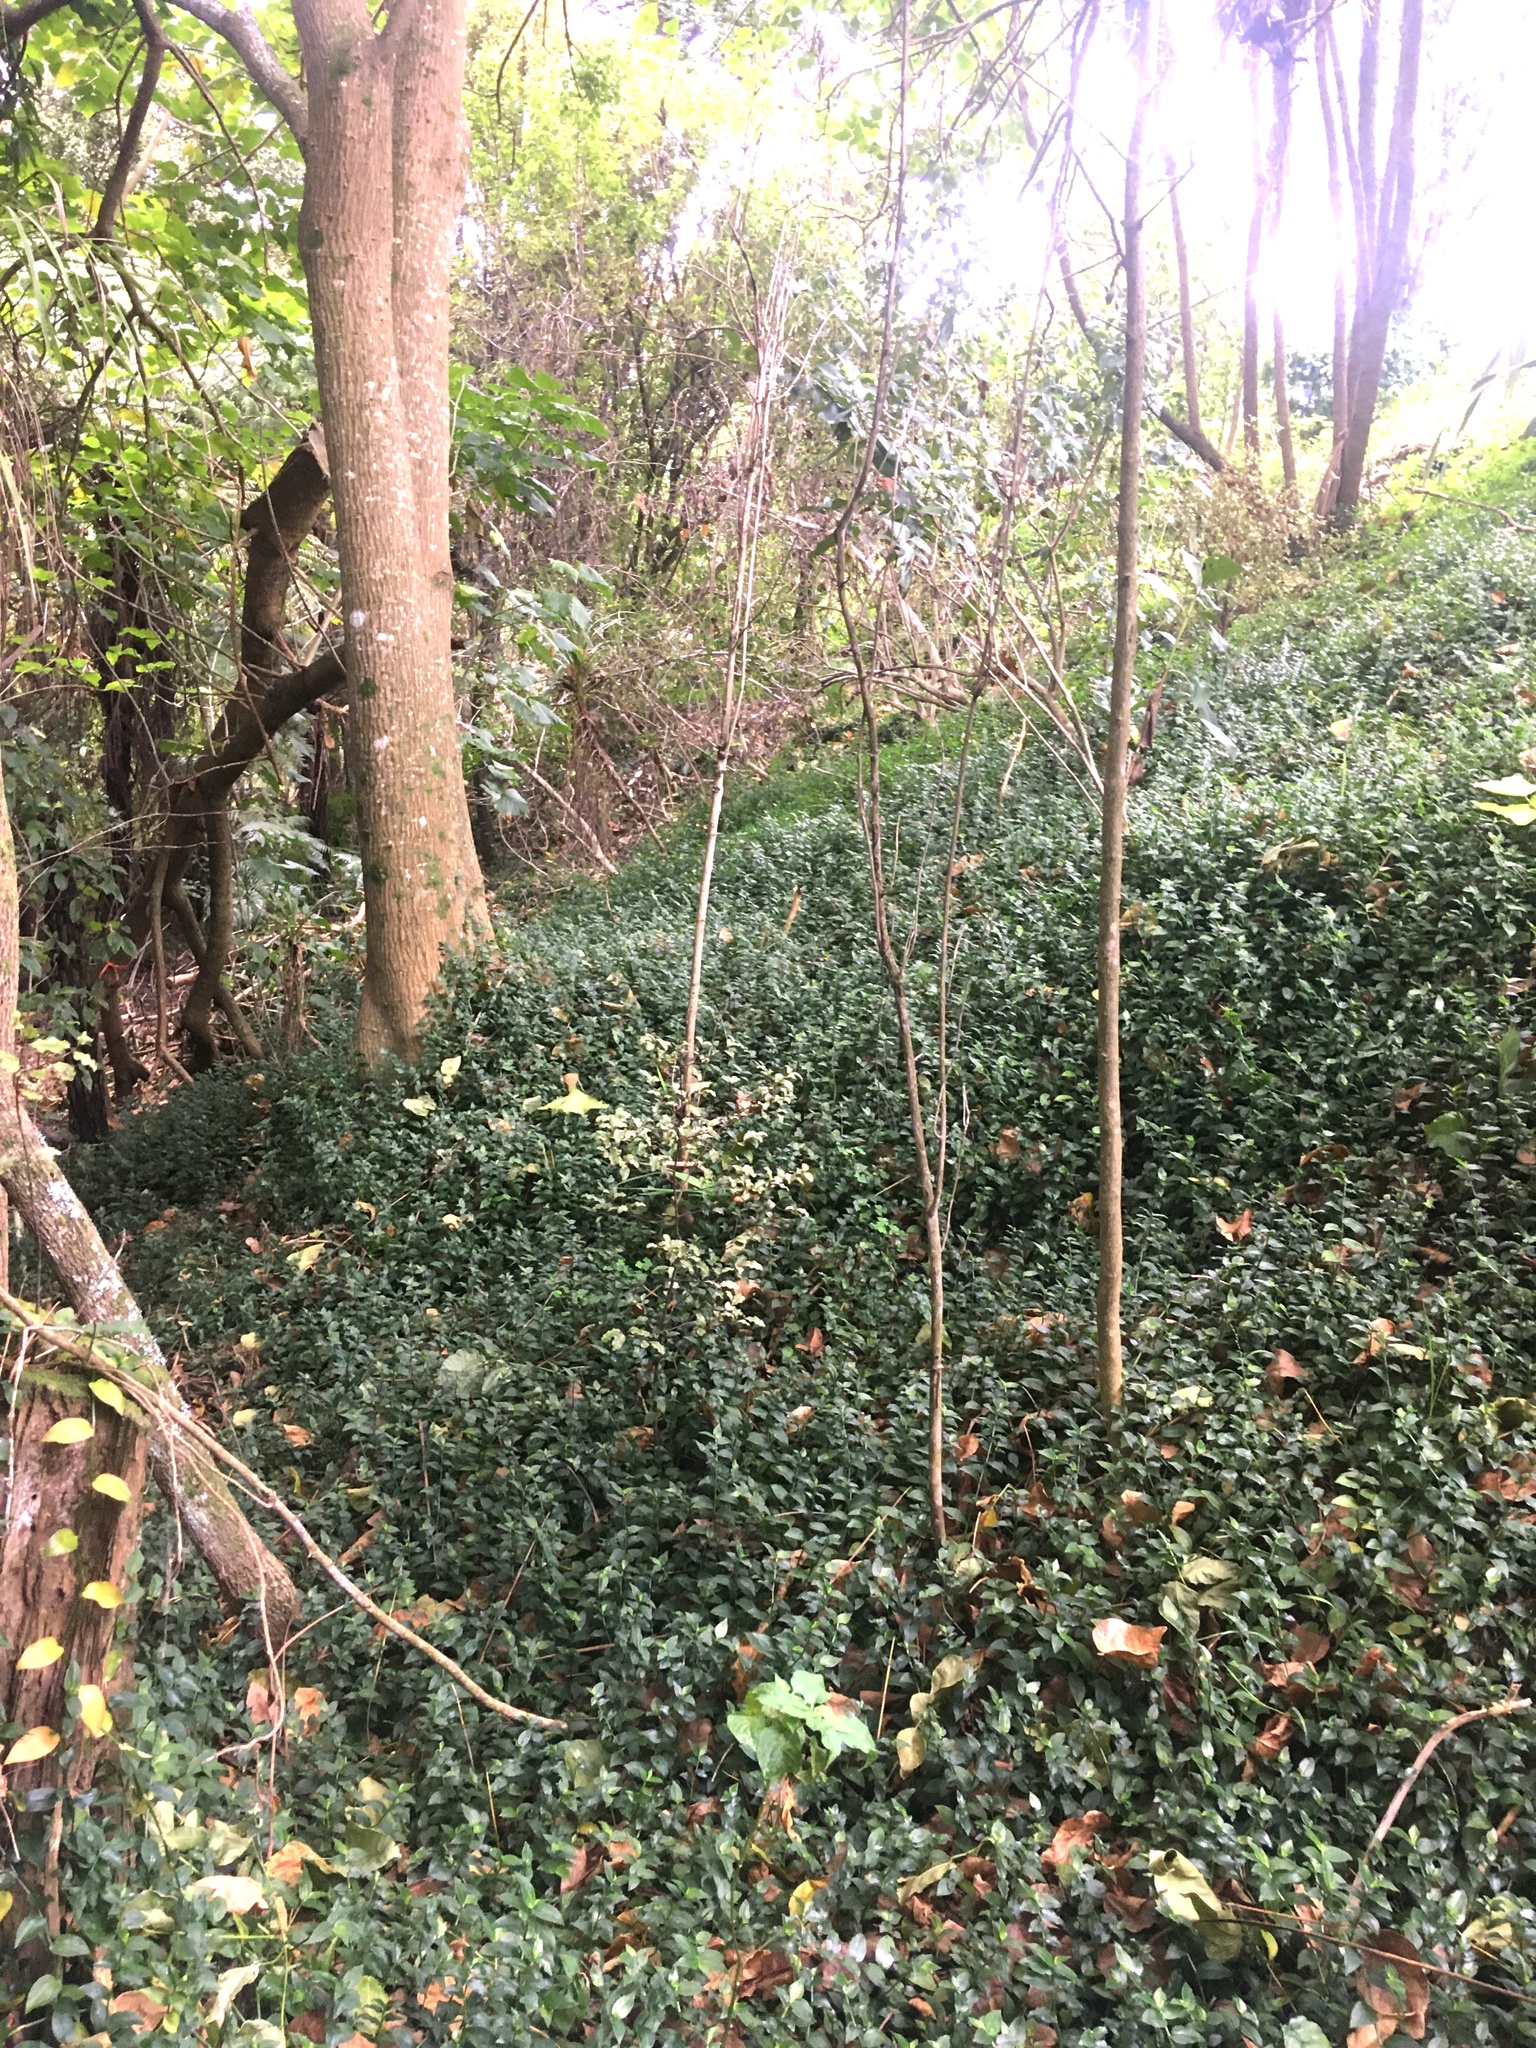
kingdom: Plantae
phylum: Tracheophyta
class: Liliopsida
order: Commelinales
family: Commelinaceae
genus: Tradescantia
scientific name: Tradescantia fluminensis
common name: Wandering-jew
